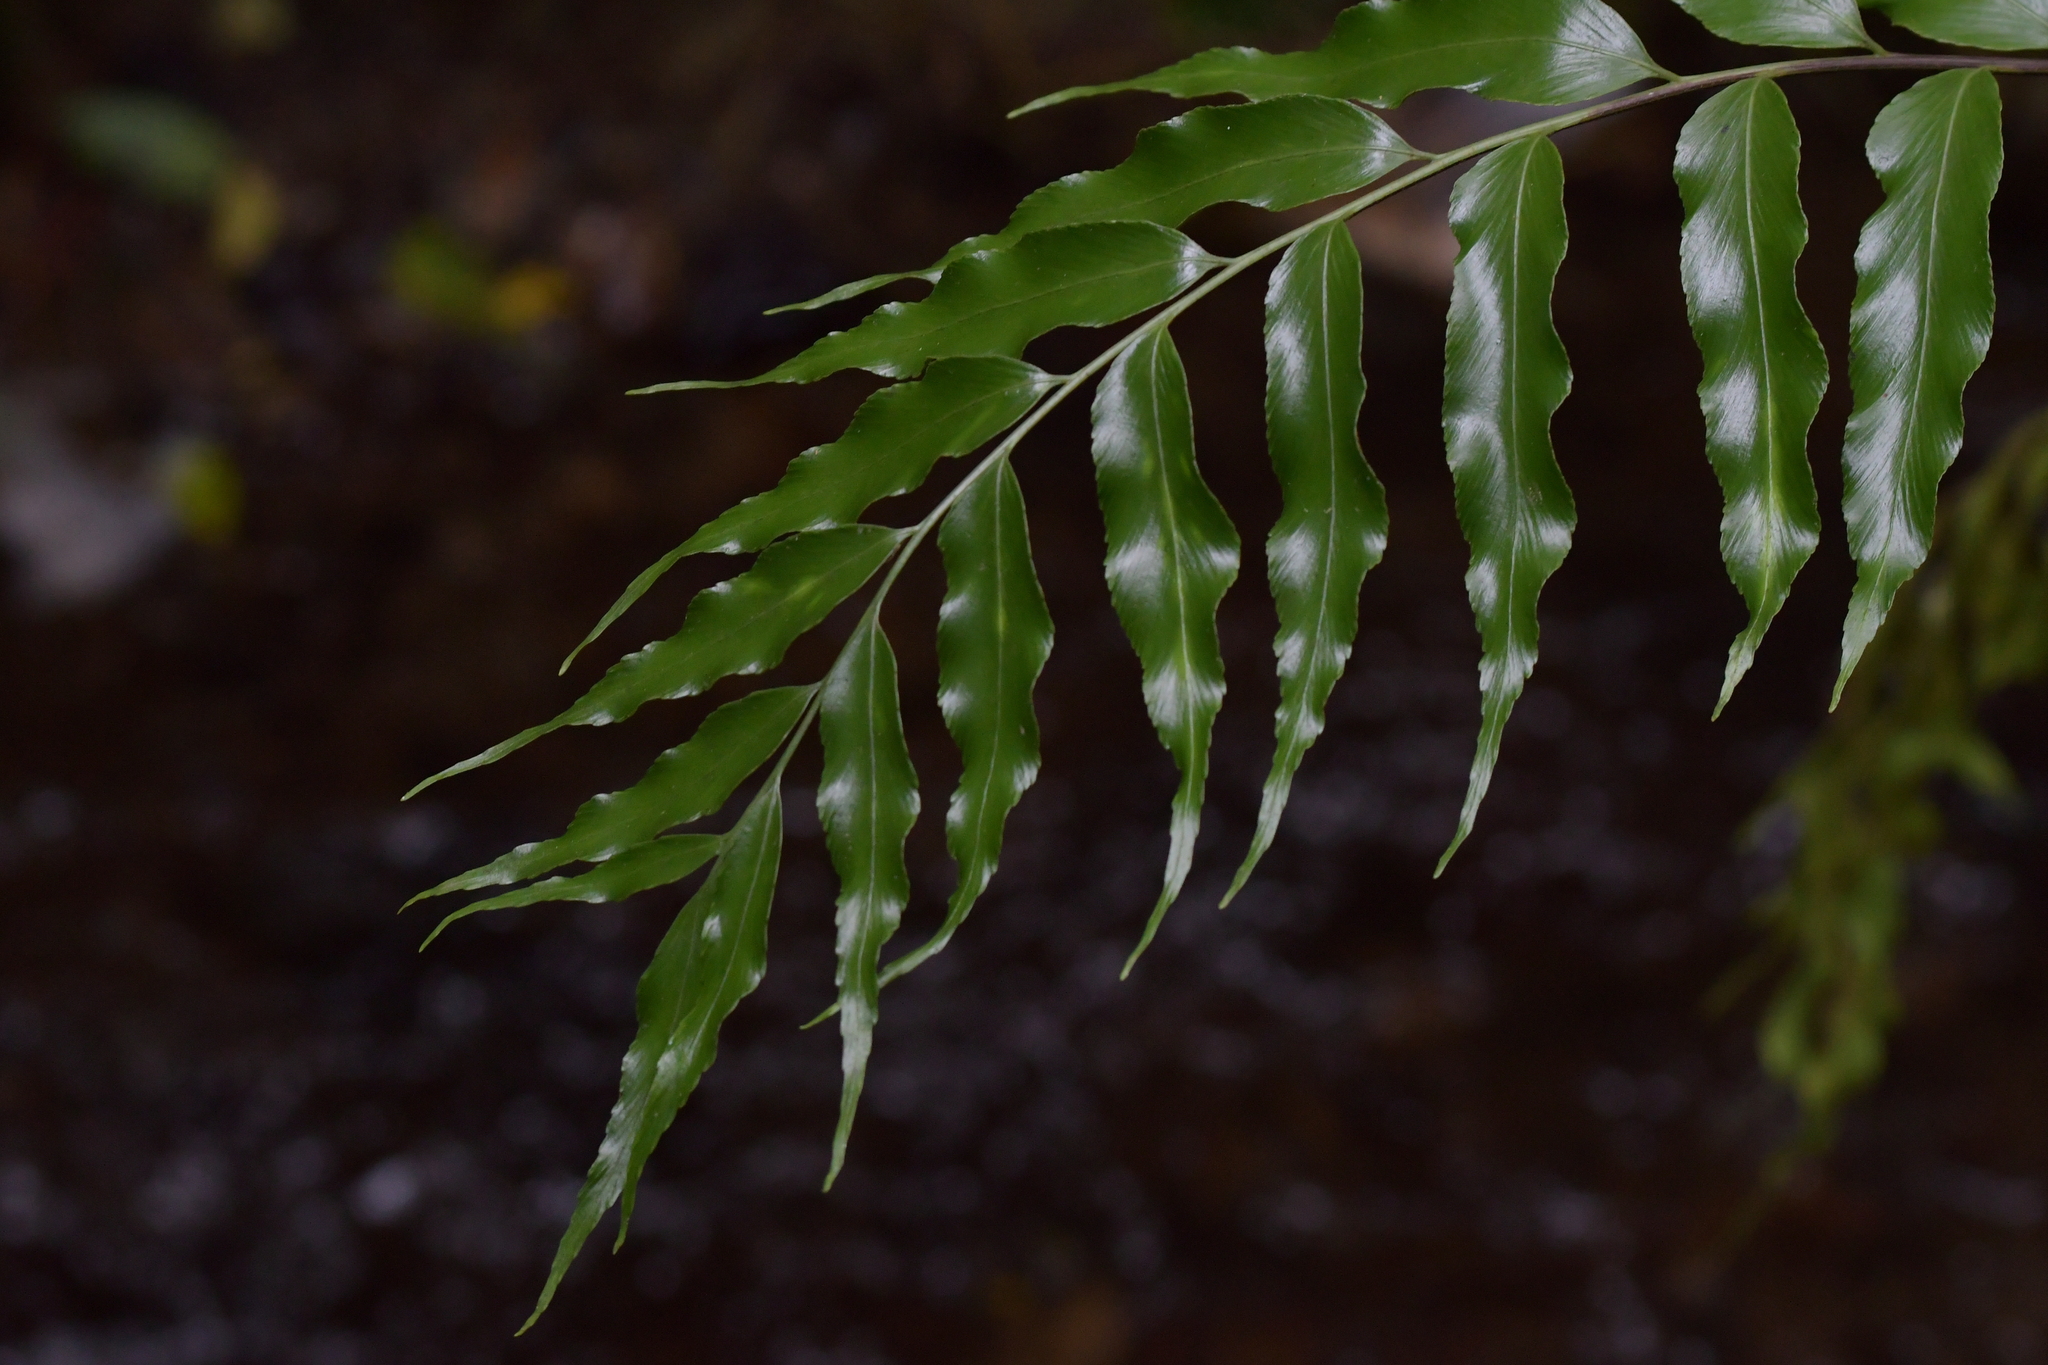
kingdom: Plantae
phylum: Tracheophyta
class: Polypodiopsida
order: Polypodiales
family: Aspleniaceae
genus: Asplenium
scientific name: Asplenium oblongifolium
